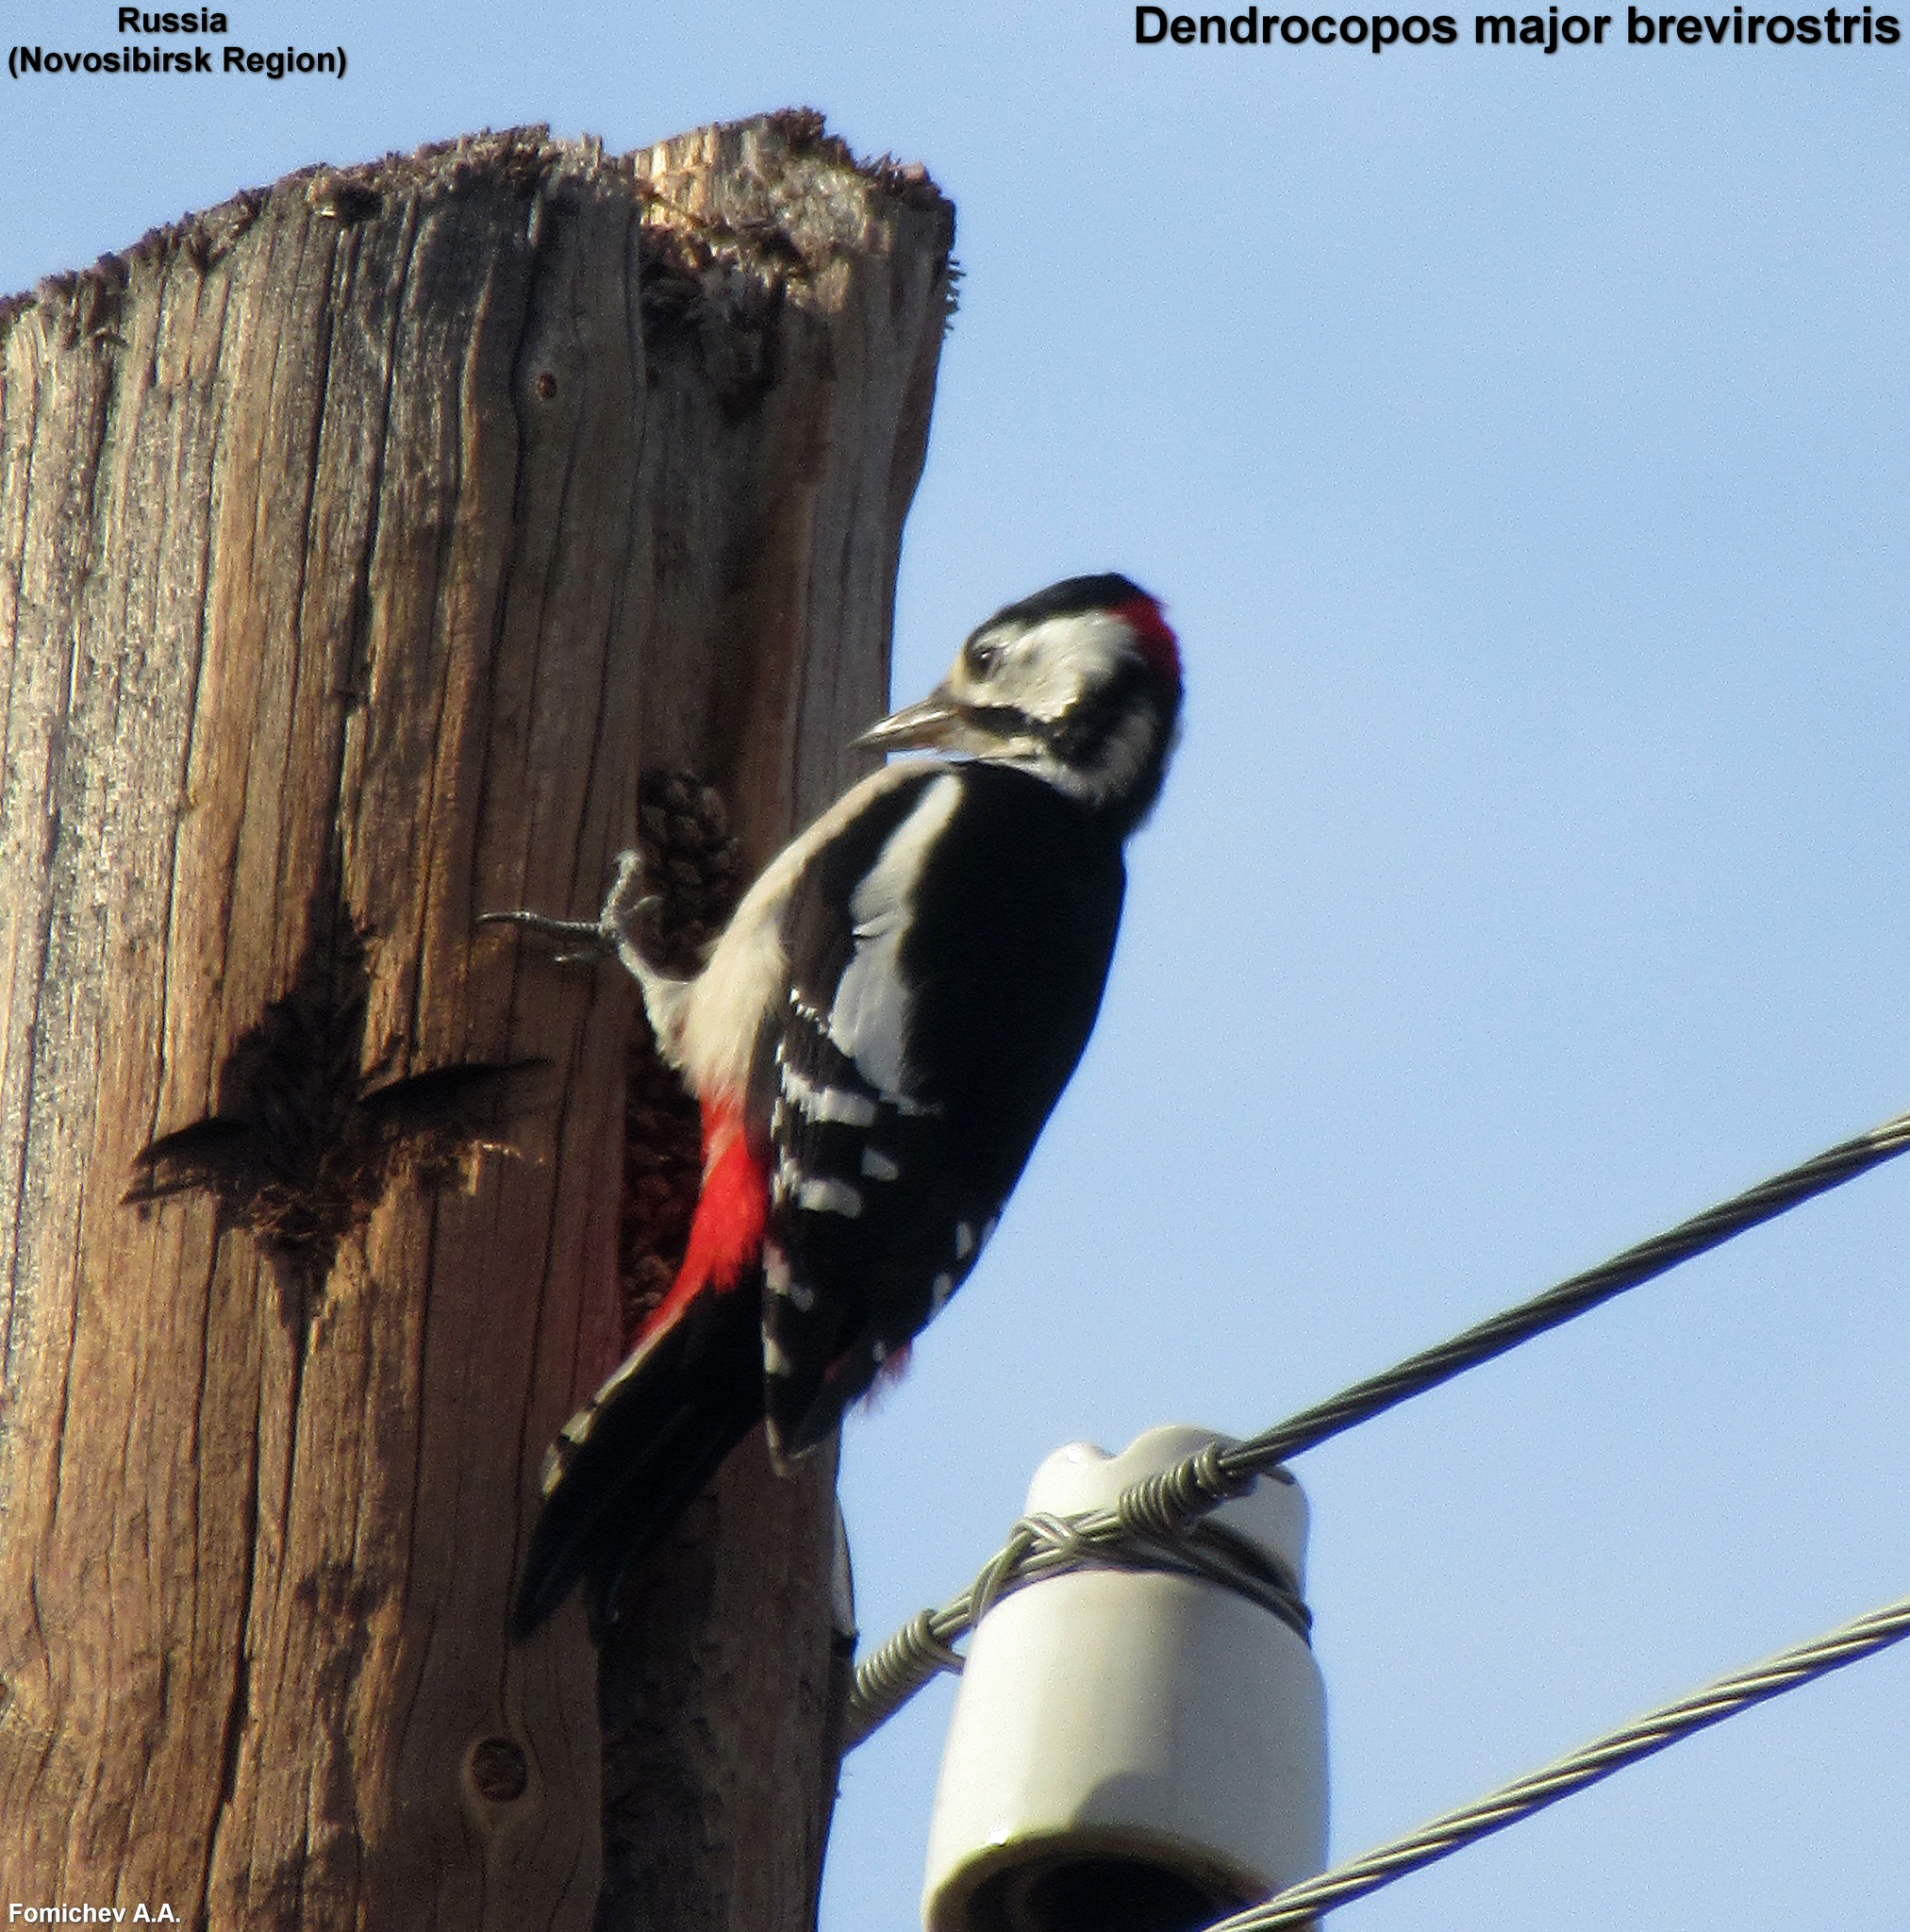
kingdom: Animalia
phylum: Chordata
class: Aves
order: Piciformes
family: Picidae
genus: Dendrocopos
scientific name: Dendrocopos major
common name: Great spotted woodpecker
